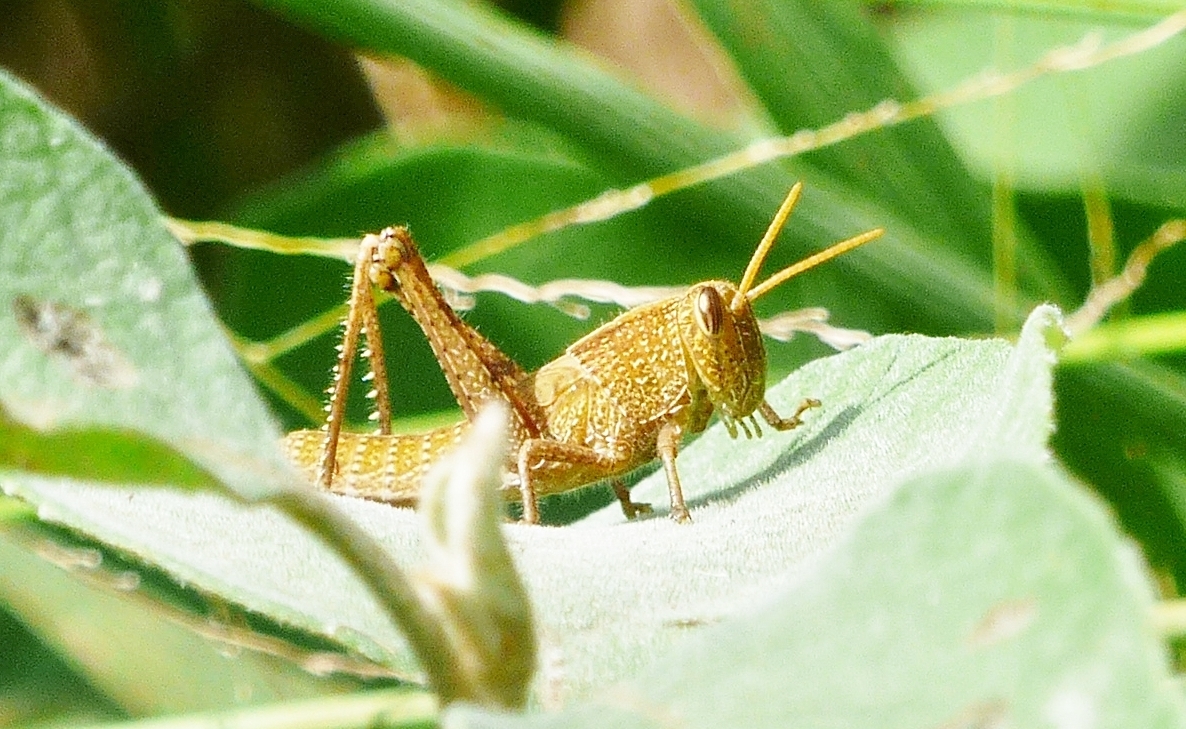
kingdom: Animalia
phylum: Arthropoda
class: Insecta
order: Orthoptera
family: Acrididae
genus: Schistocerca
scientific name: Schistocerca impleta
